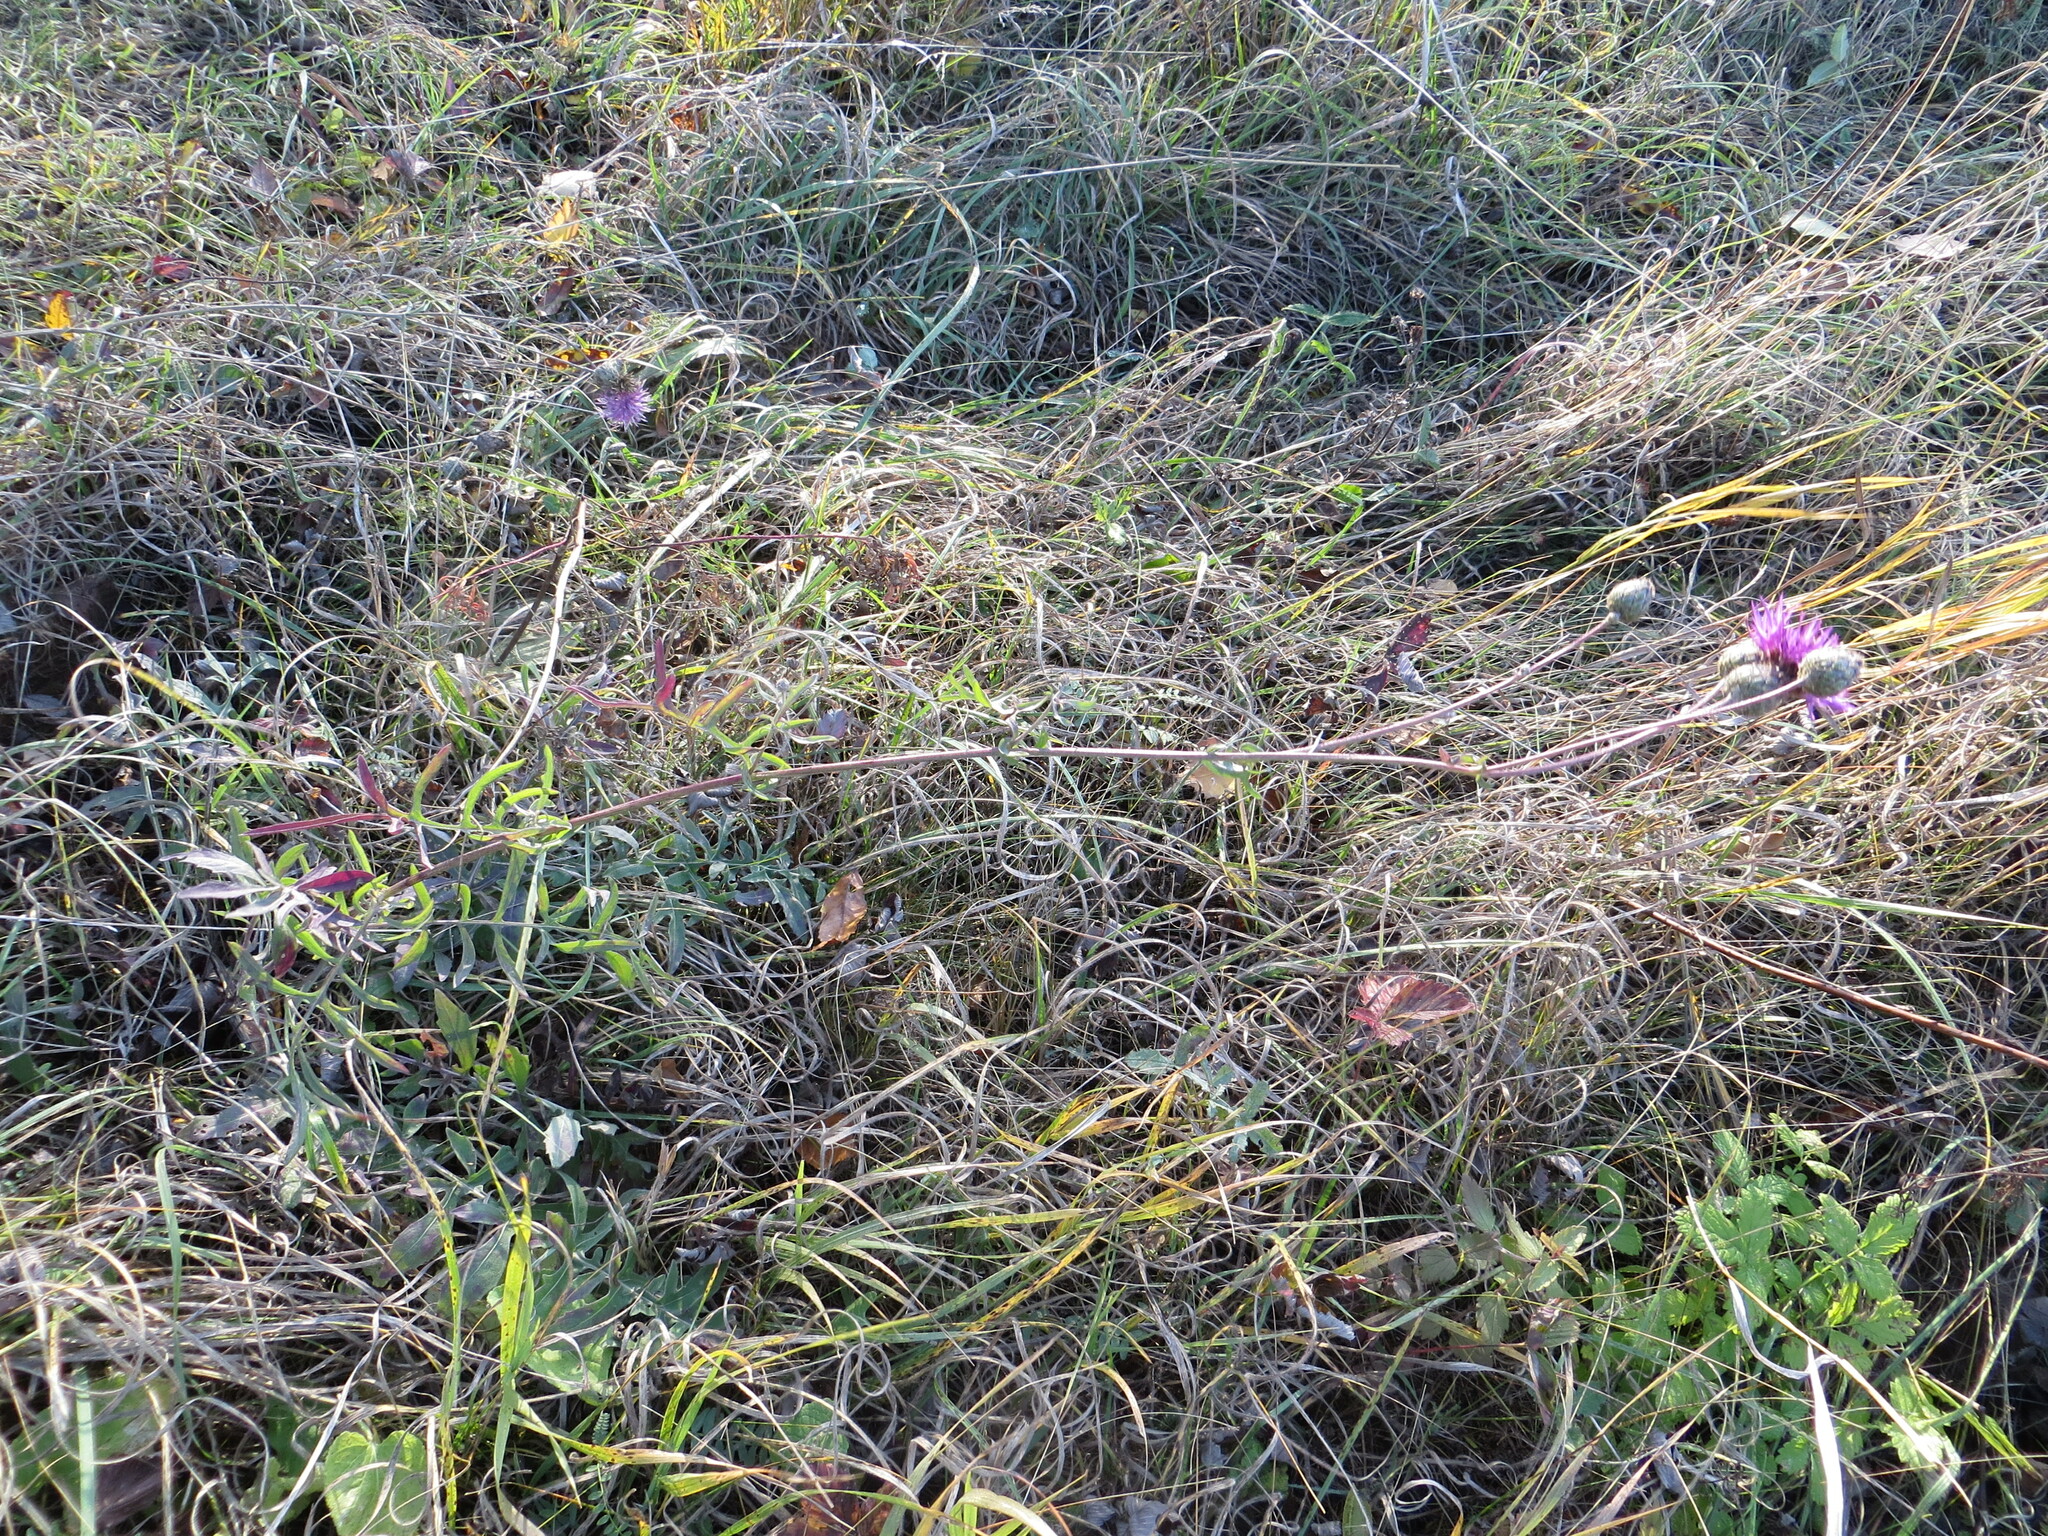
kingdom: Plantae
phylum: Tracheophyta
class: Magnoliopsida
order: Asterales
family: Asteraceae
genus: Centaurea
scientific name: Centaurea scabiosa
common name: Greater knapweed
